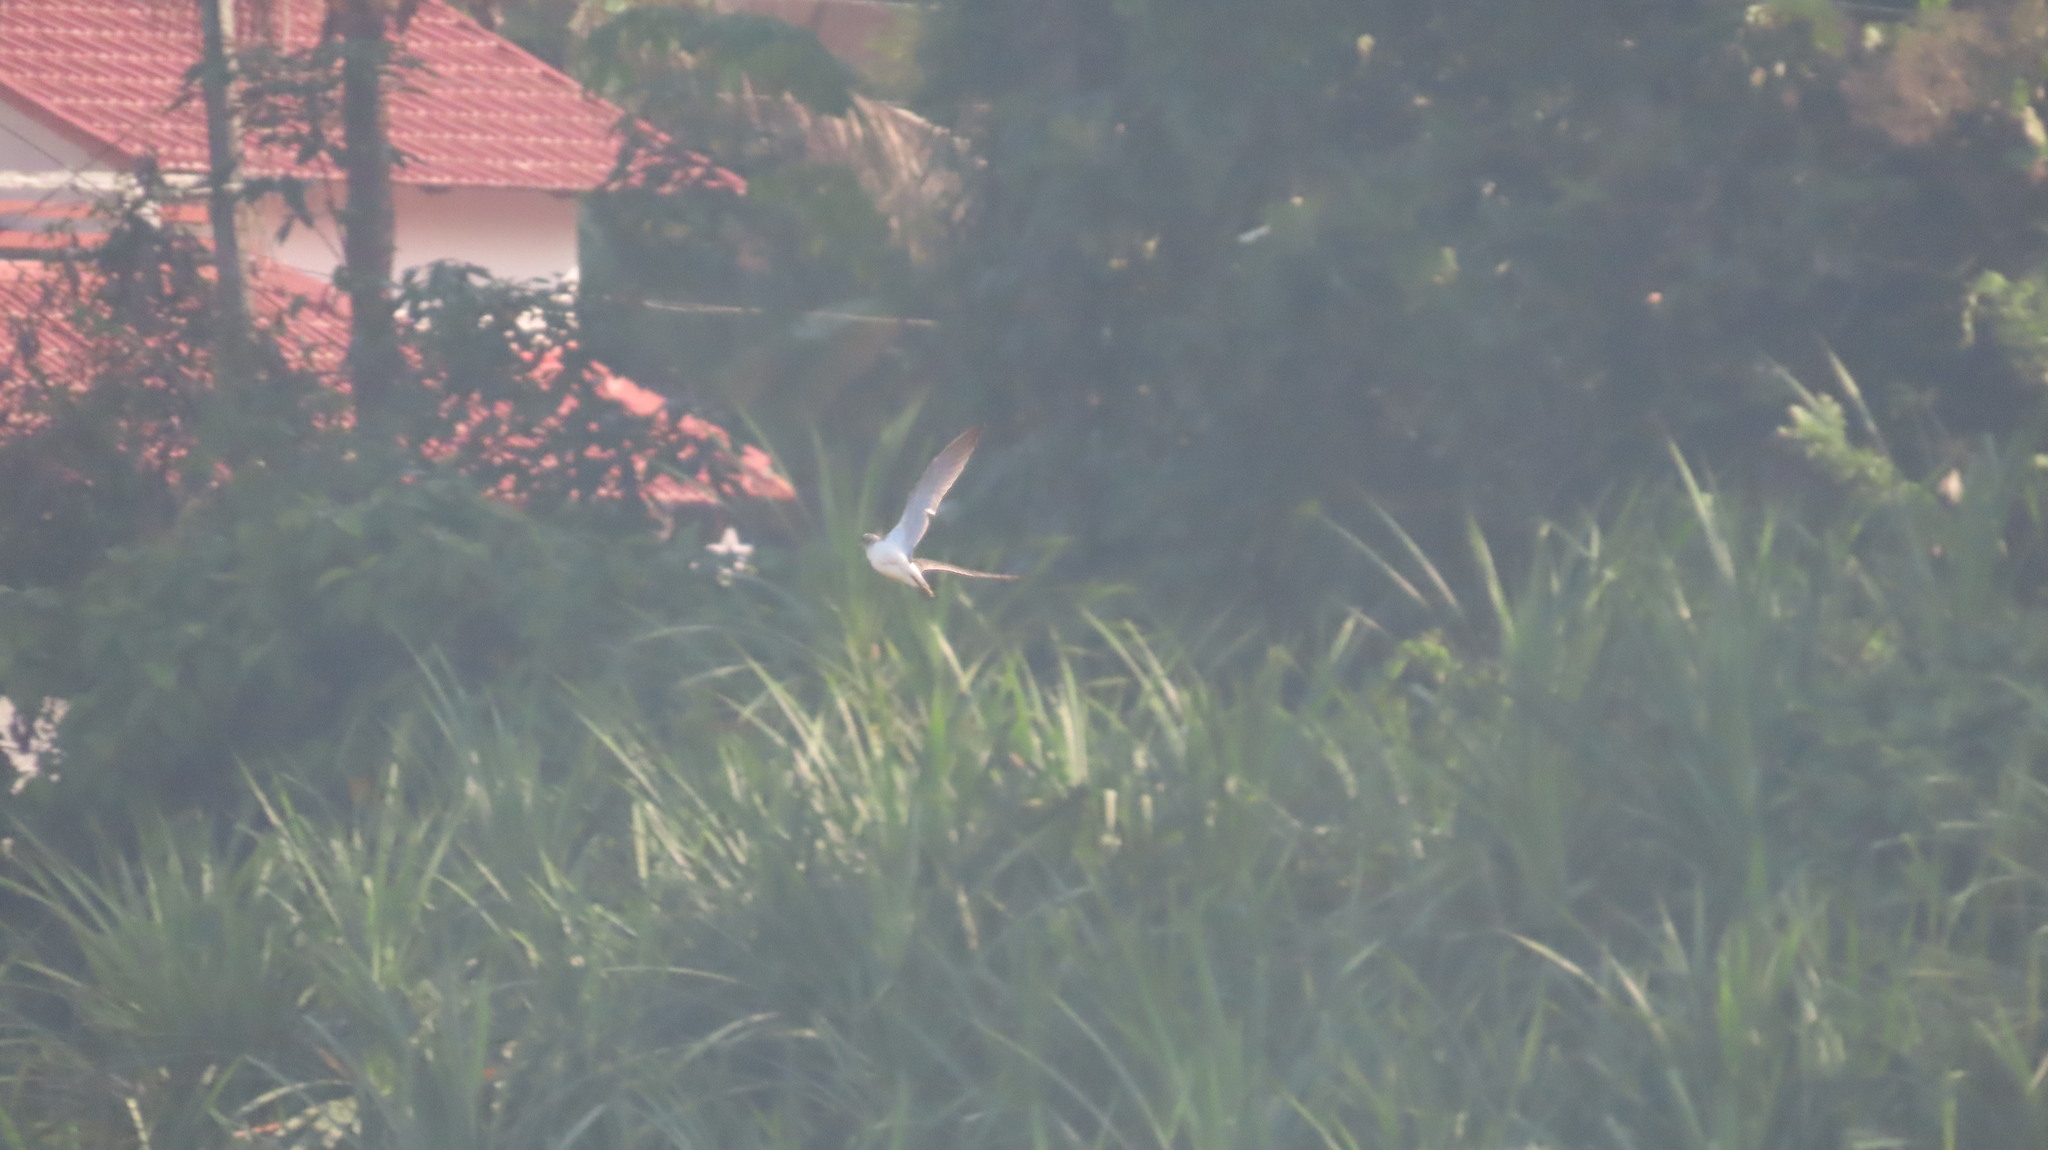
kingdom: Animalia
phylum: Chordata
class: Aves
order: Charadriiformes
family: Scolopacidae
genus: Tringa
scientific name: Tringa nebularia
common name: Common greenshank
